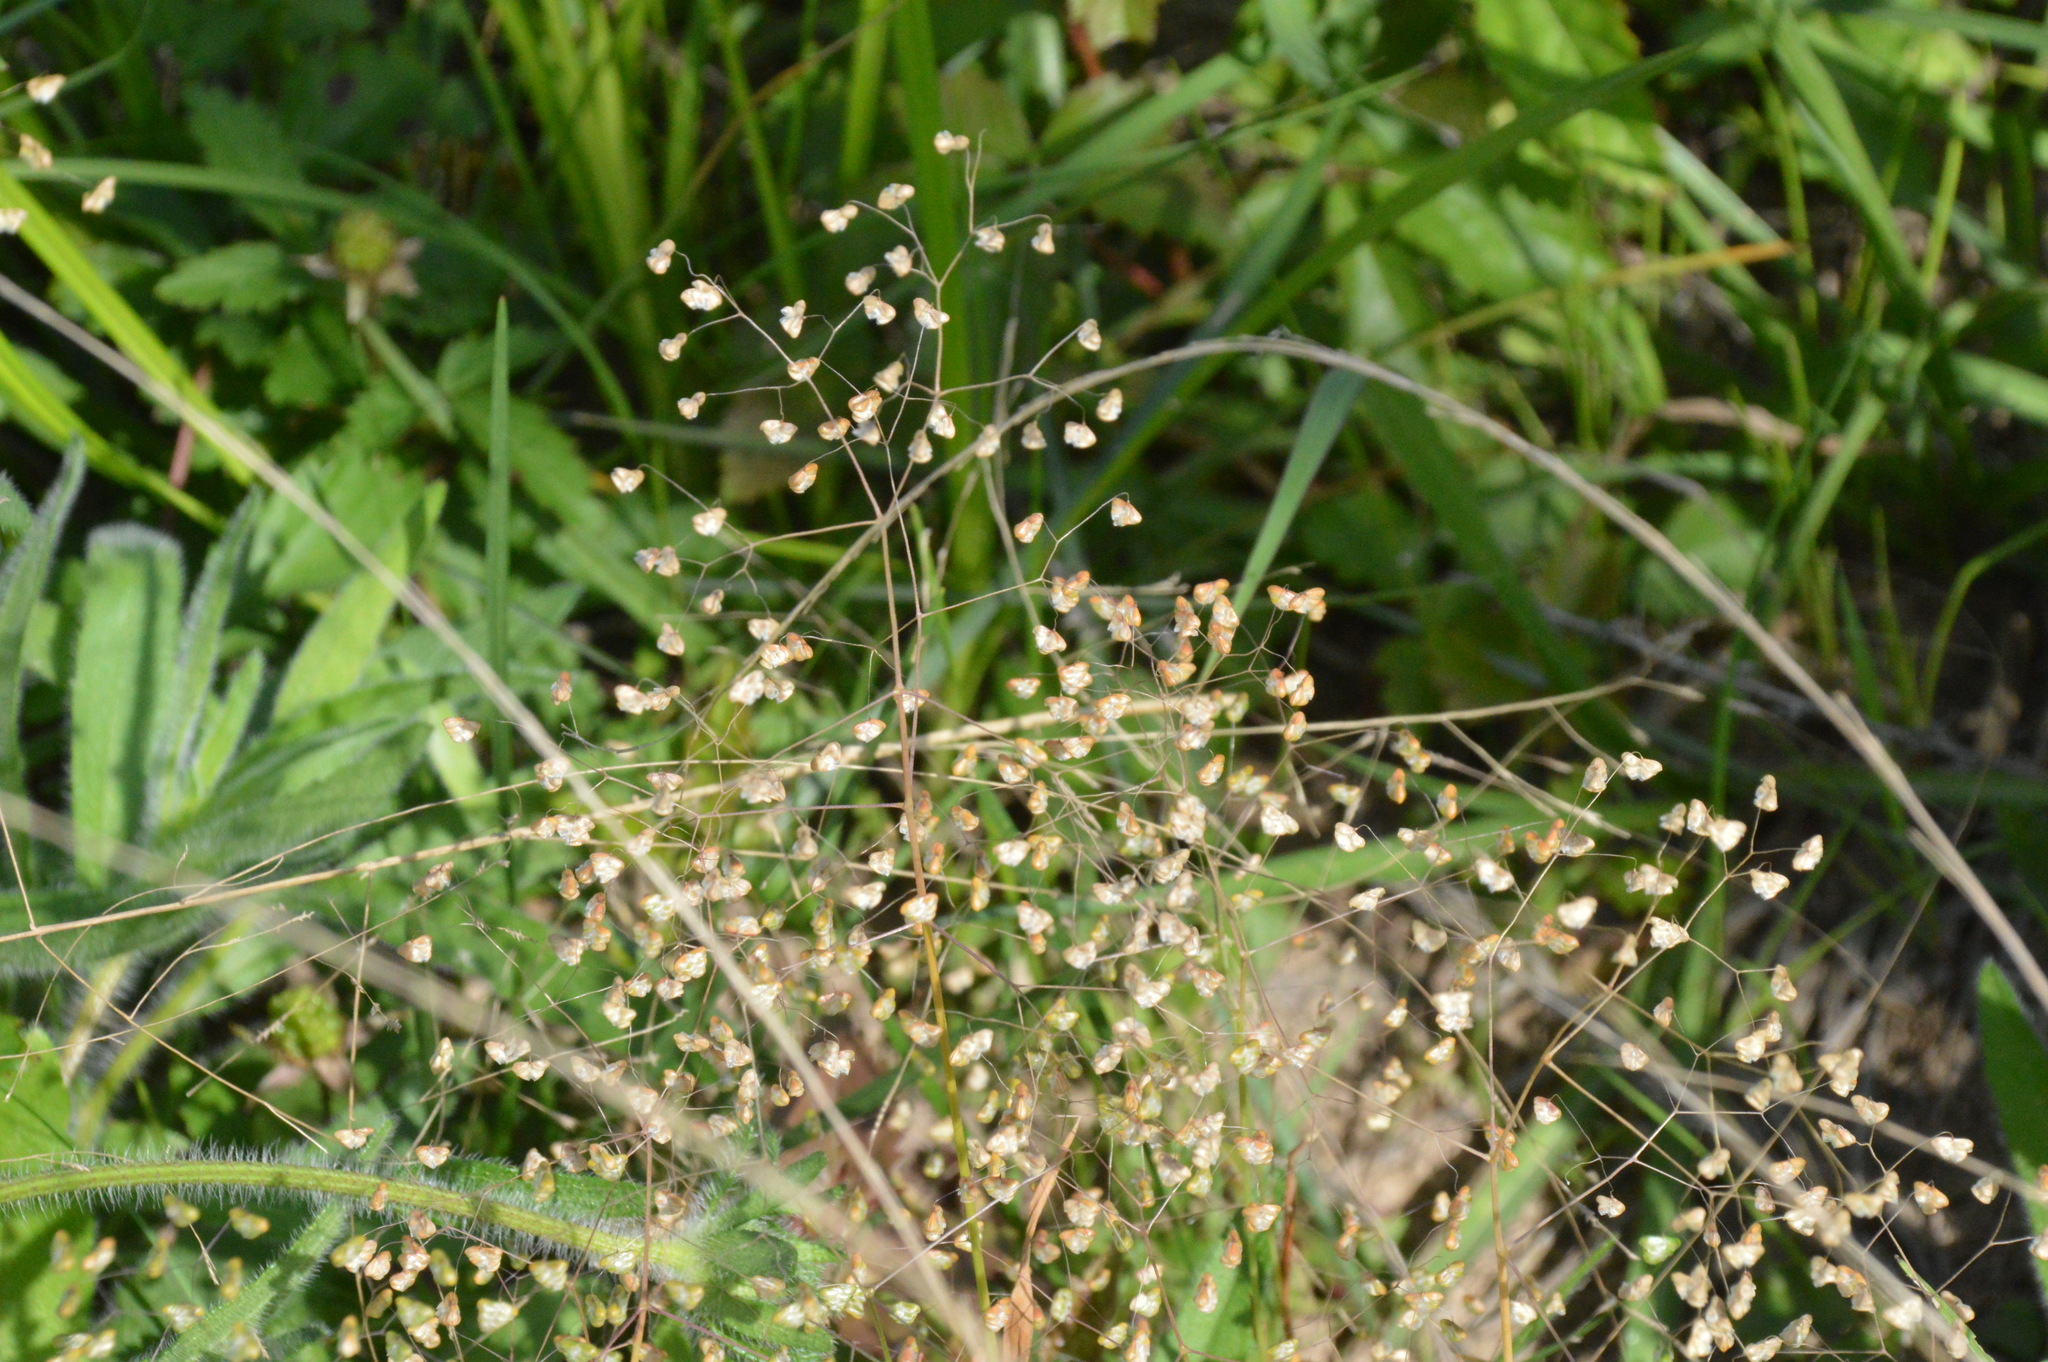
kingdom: Plantae
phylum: Tracheophyta
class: Liliopsida
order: Poales
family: Poaceae
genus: Briza
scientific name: Briza minor
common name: Lesser quaking-grass
